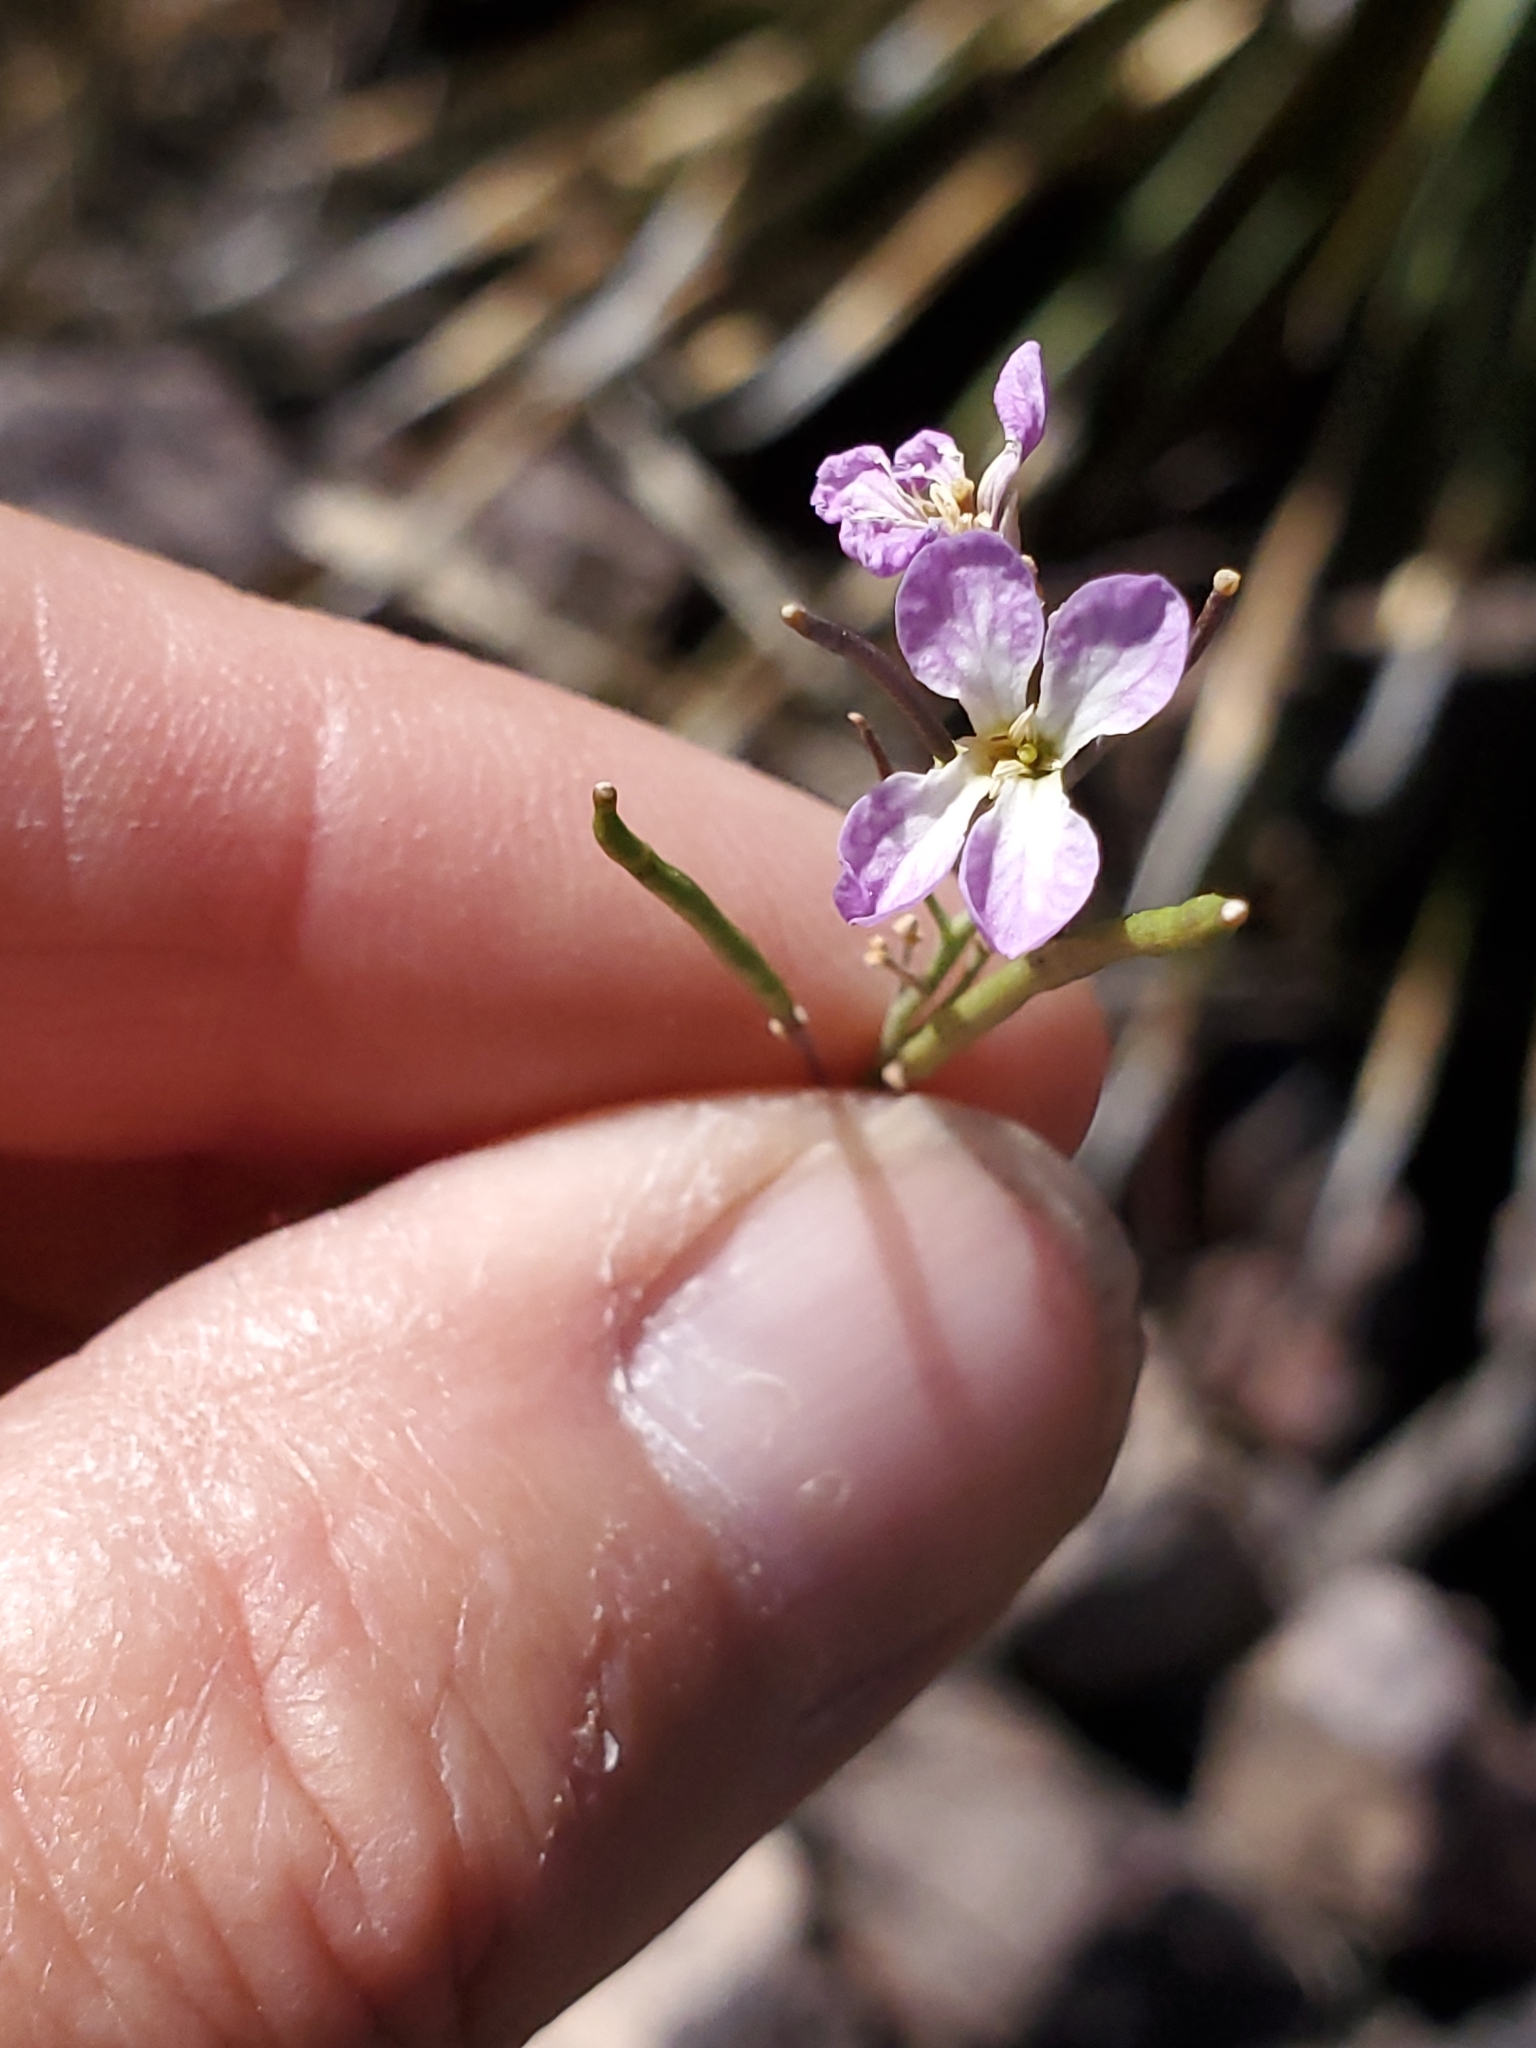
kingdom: Plantae
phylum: Tracheophyta
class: Magnoliopsida
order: Brassicales
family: Brassicaceae
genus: Hesperidanthus
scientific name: Hesperidanthus linearifolius
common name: Slim-leaf plains mustard
